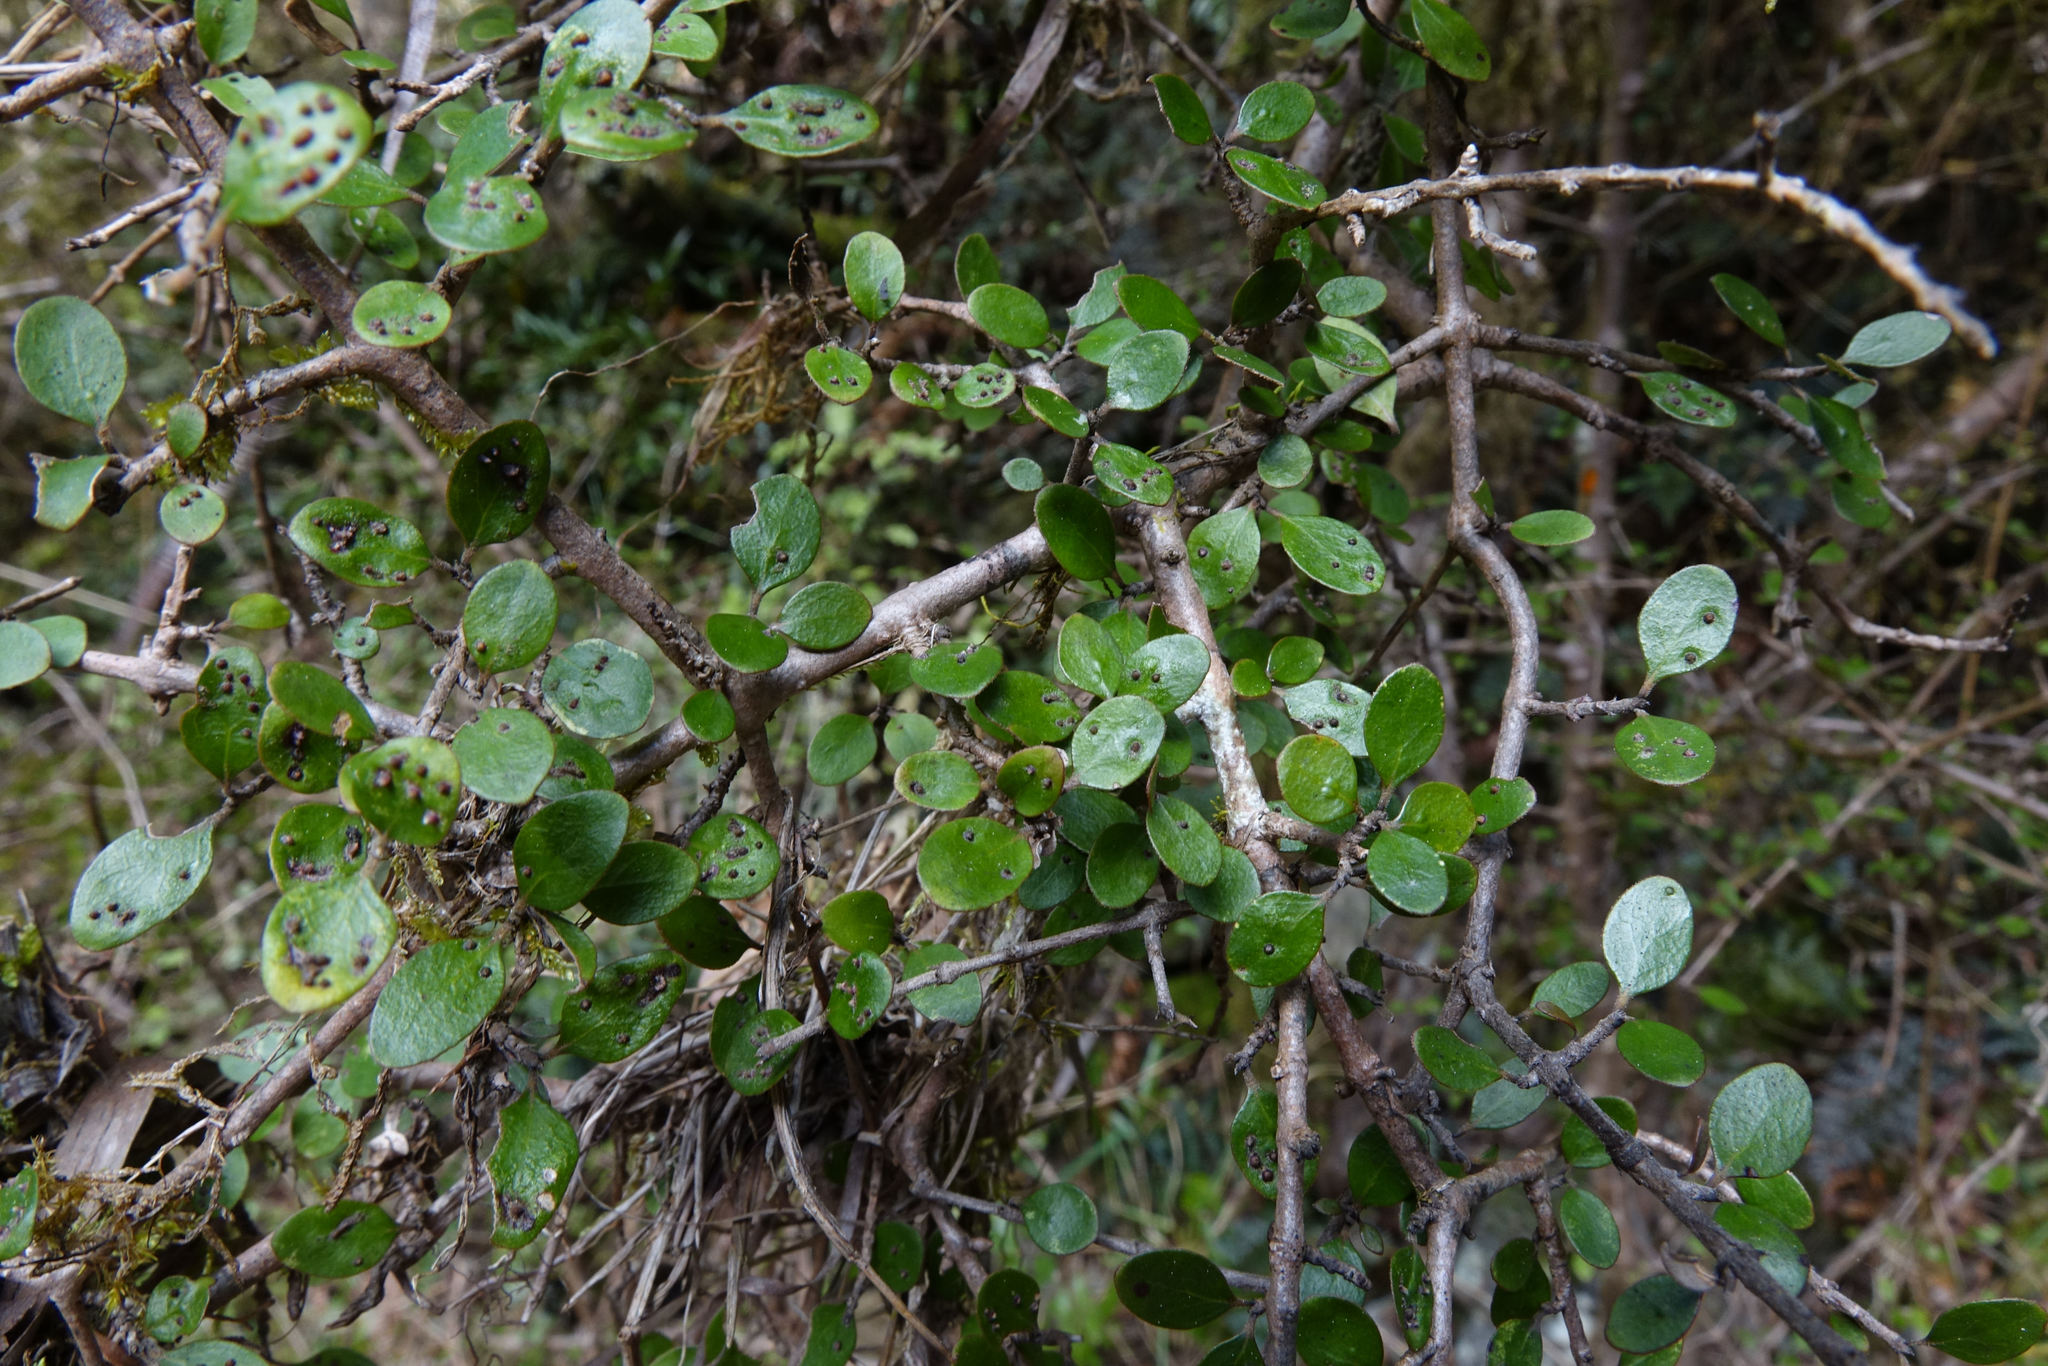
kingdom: Plantae
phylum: Tracheophyta
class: Magnoliopsida
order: Gentianales
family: Rubiaceae
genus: Coprosma
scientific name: Coprosma wallii
